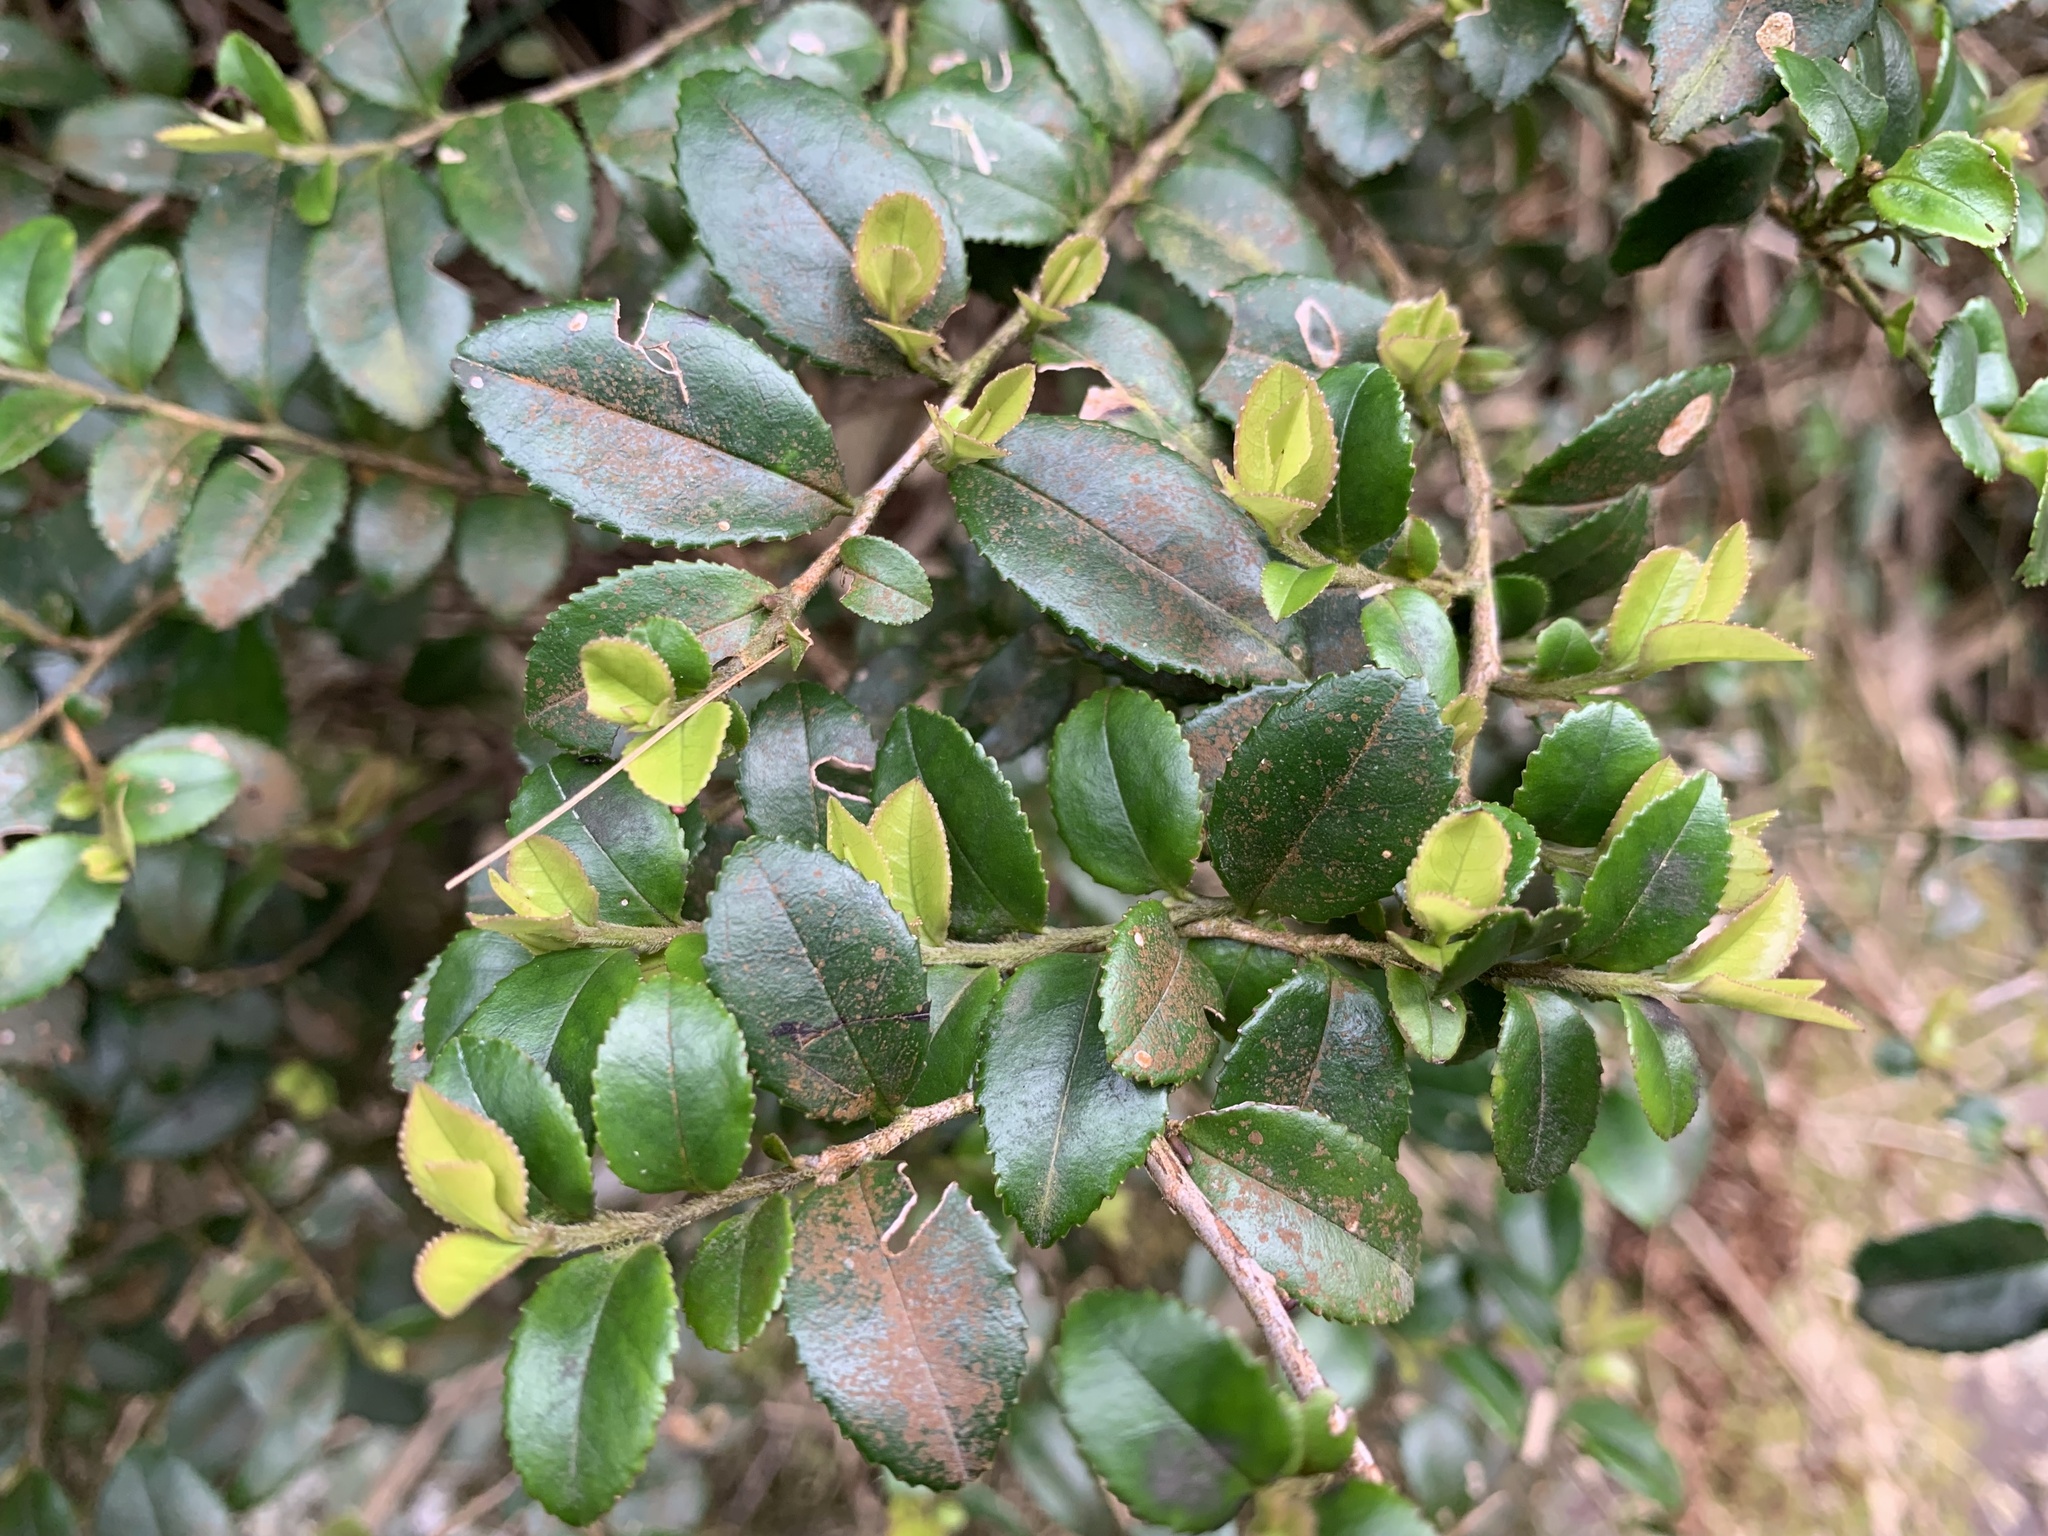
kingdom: Plantae
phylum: Tracheophyta
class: Magnoliopsida
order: Ericales
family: Pentaphylacaceae
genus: Eurya
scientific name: Eurya crenatifolia
